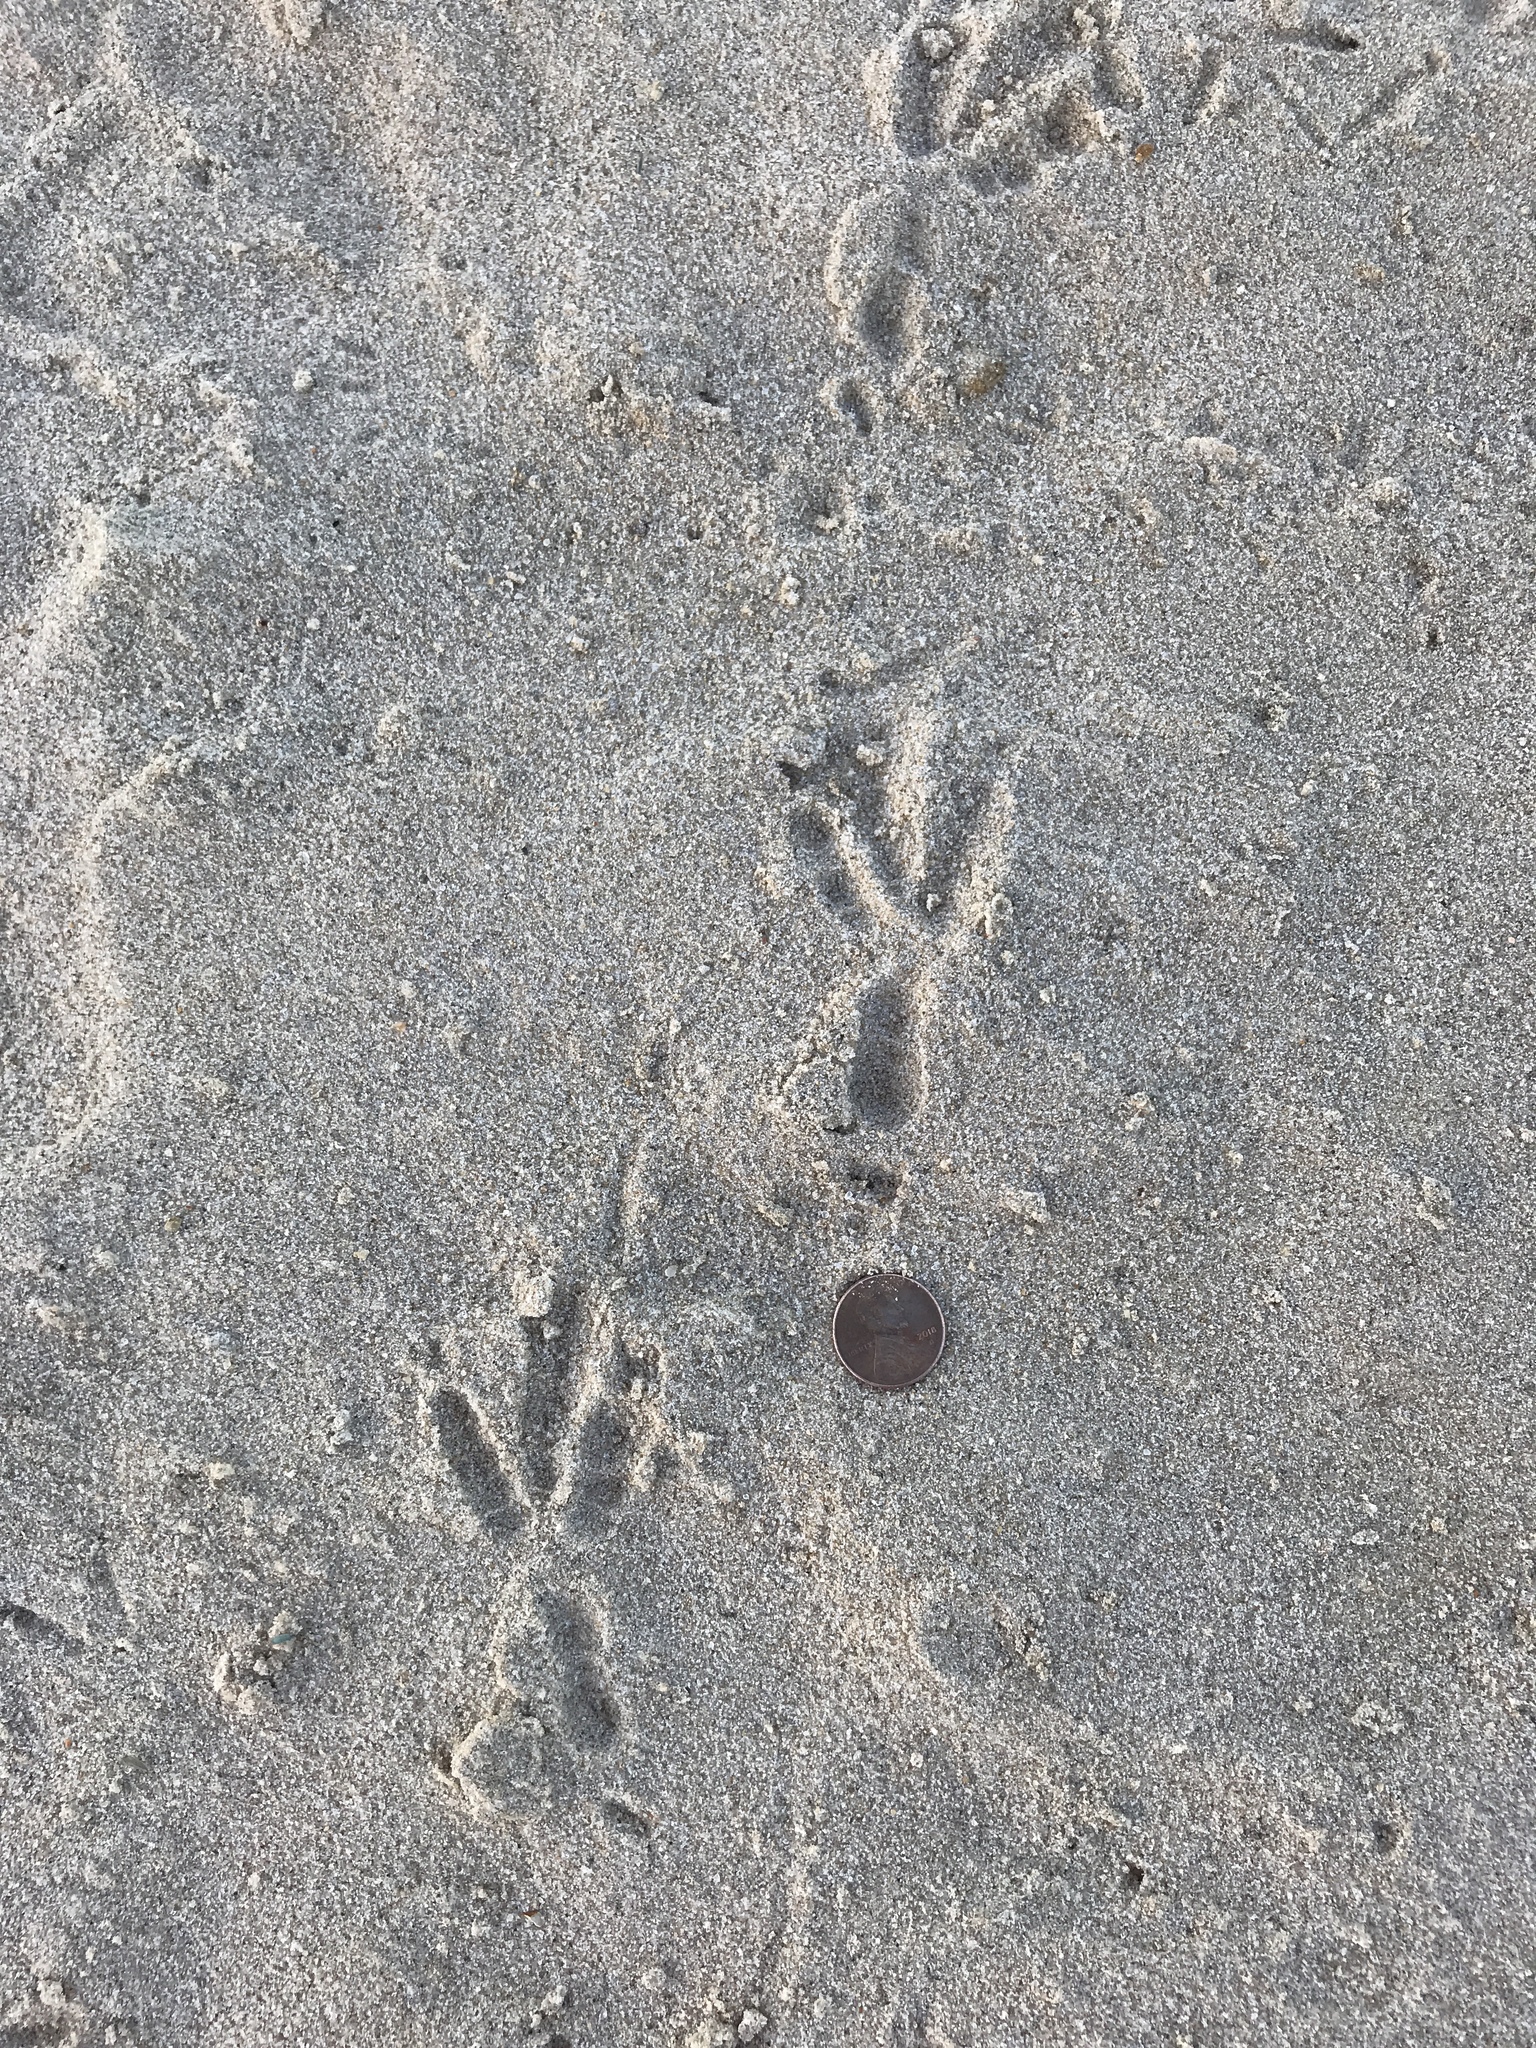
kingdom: Animalia
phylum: Chordata
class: Aves
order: Passeriformes
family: Corvidae
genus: Corvus
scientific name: Corvus brachyrhynchos
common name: American crow
